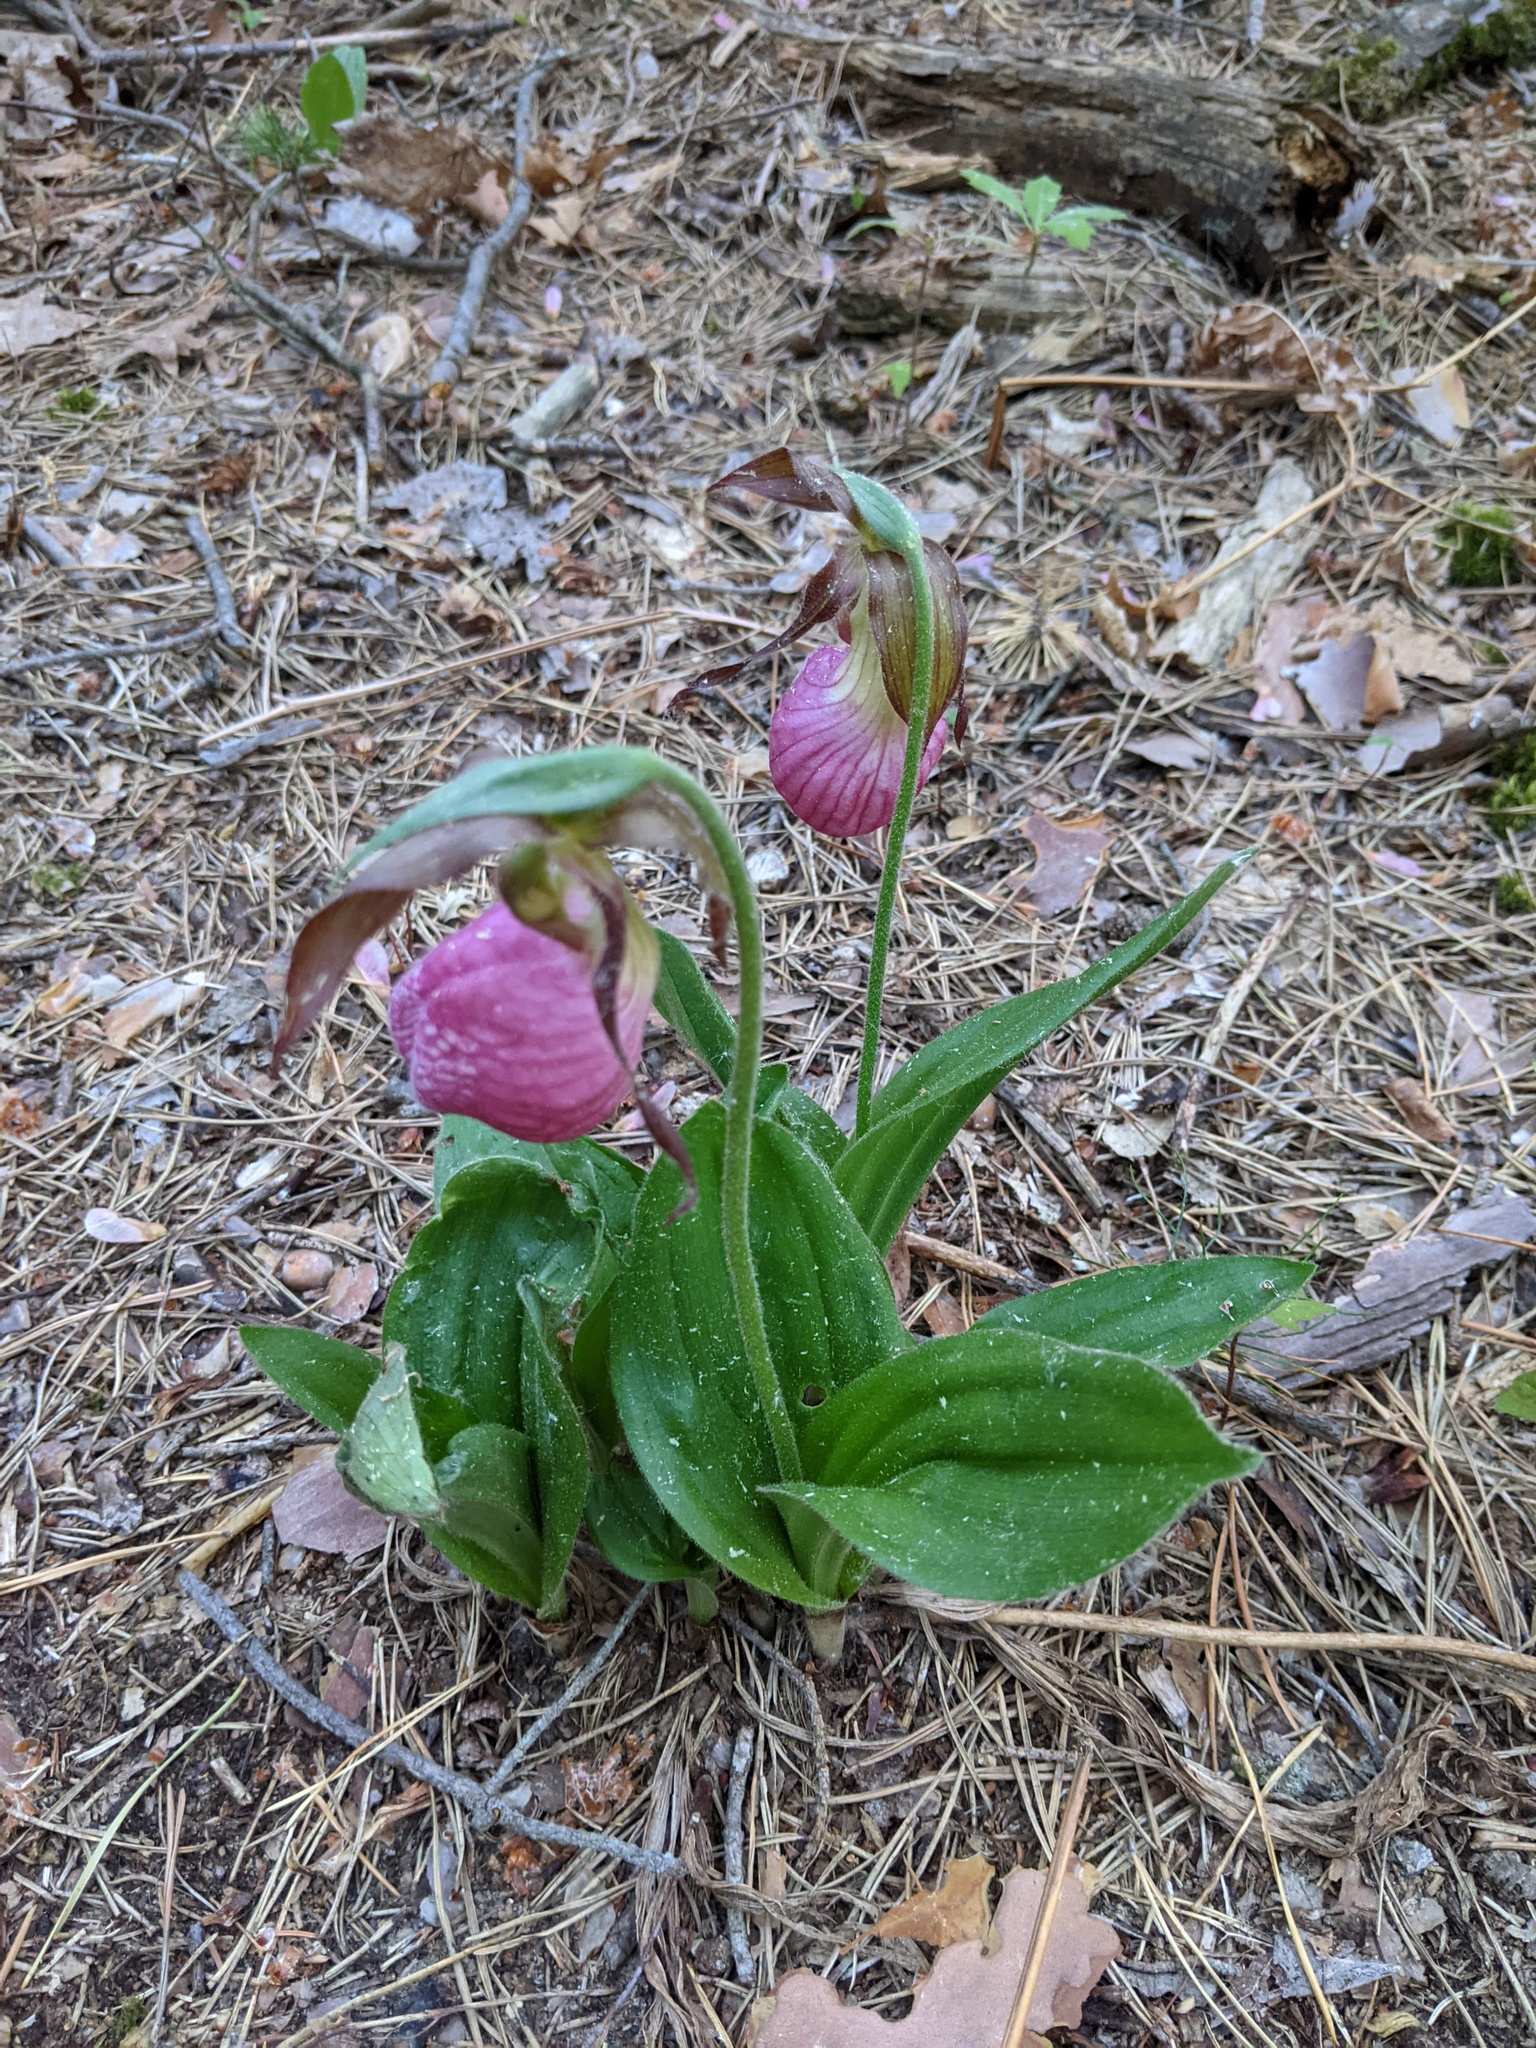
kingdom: Plantae
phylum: Tracheophyta
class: Liliopsida
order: Asparagales
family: Orchidaceae
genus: Cypripedium
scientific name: Cypripedium acaule
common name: Pink lady's-slipper
